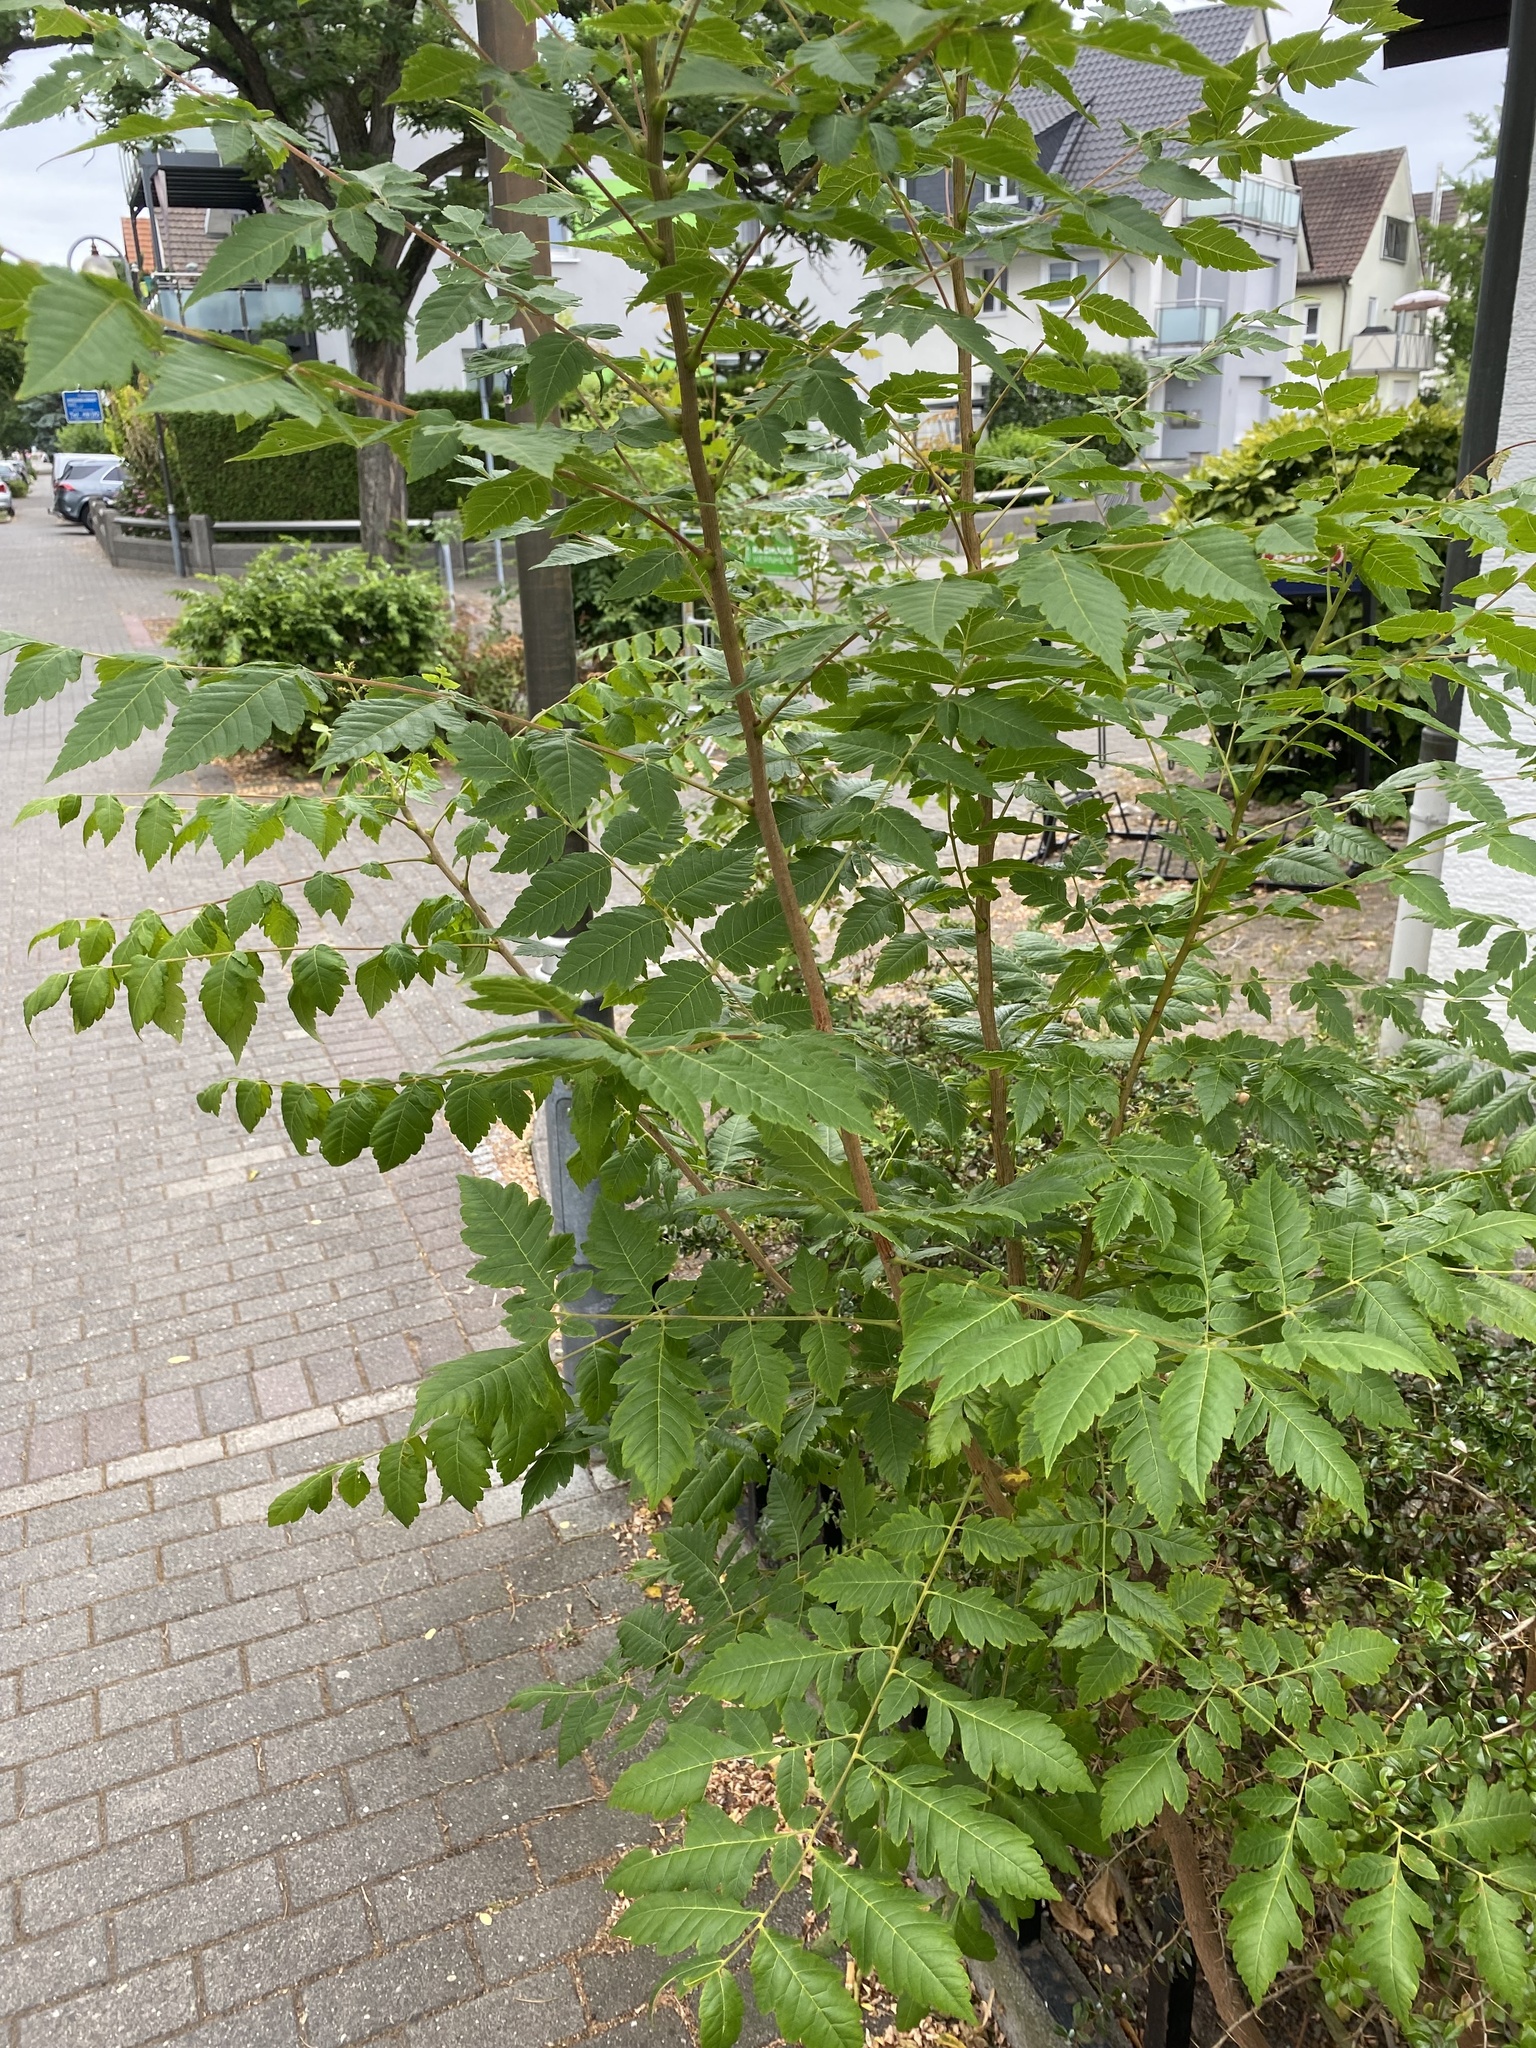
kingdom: Plantae
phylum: Tracheophyta
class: Magnoliopsida
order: Sapindales
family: Sapindaceae
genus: Koelreuteria
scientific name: Koelreuteria paniculata
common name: Pride-of-india
